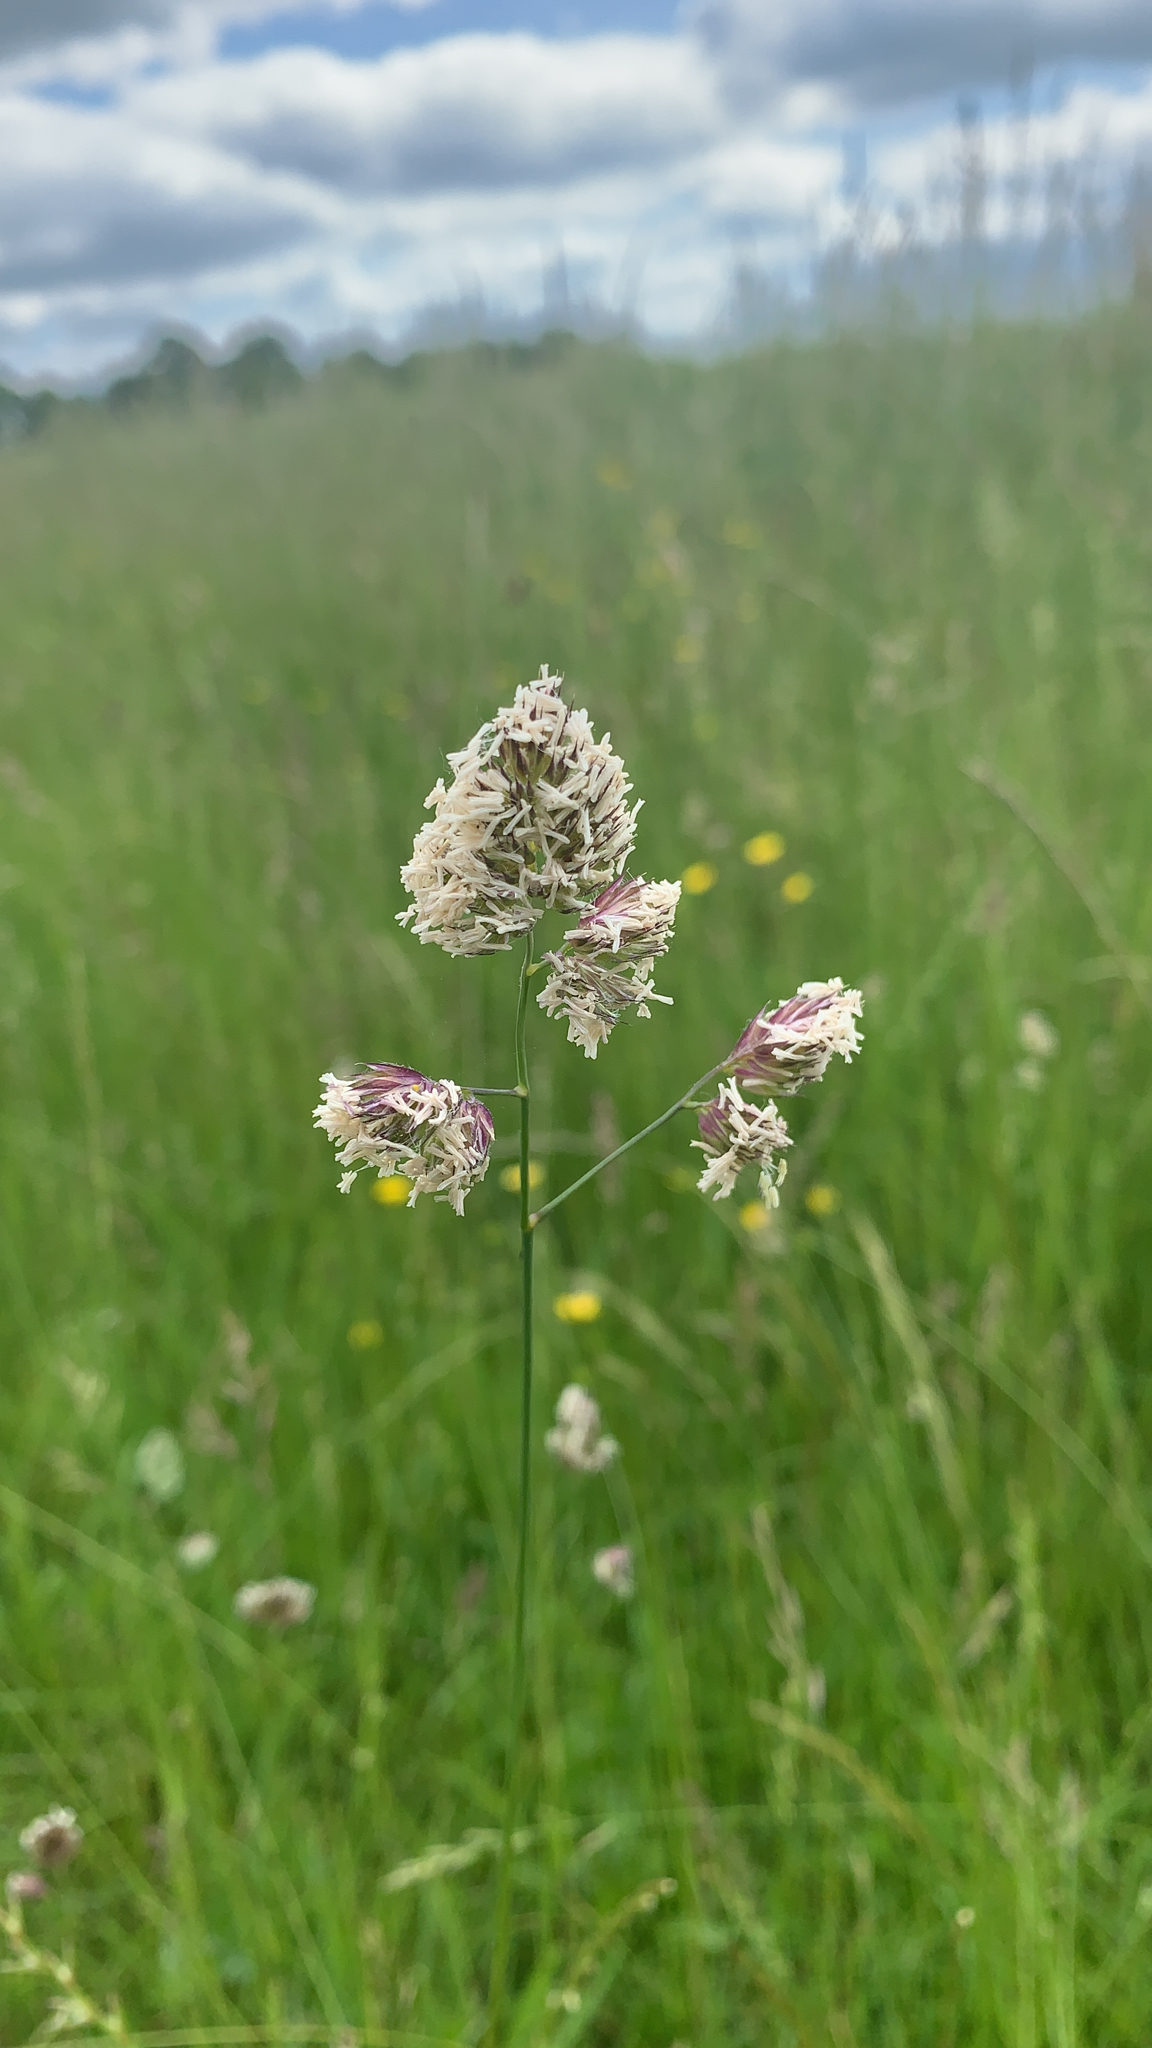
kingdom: Plantae
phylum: Tracheophyta
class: Liliopsida
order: Poales
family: Poaceae
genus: Dactylis
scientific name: Dactylis glomerata
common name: Orchardgrass
